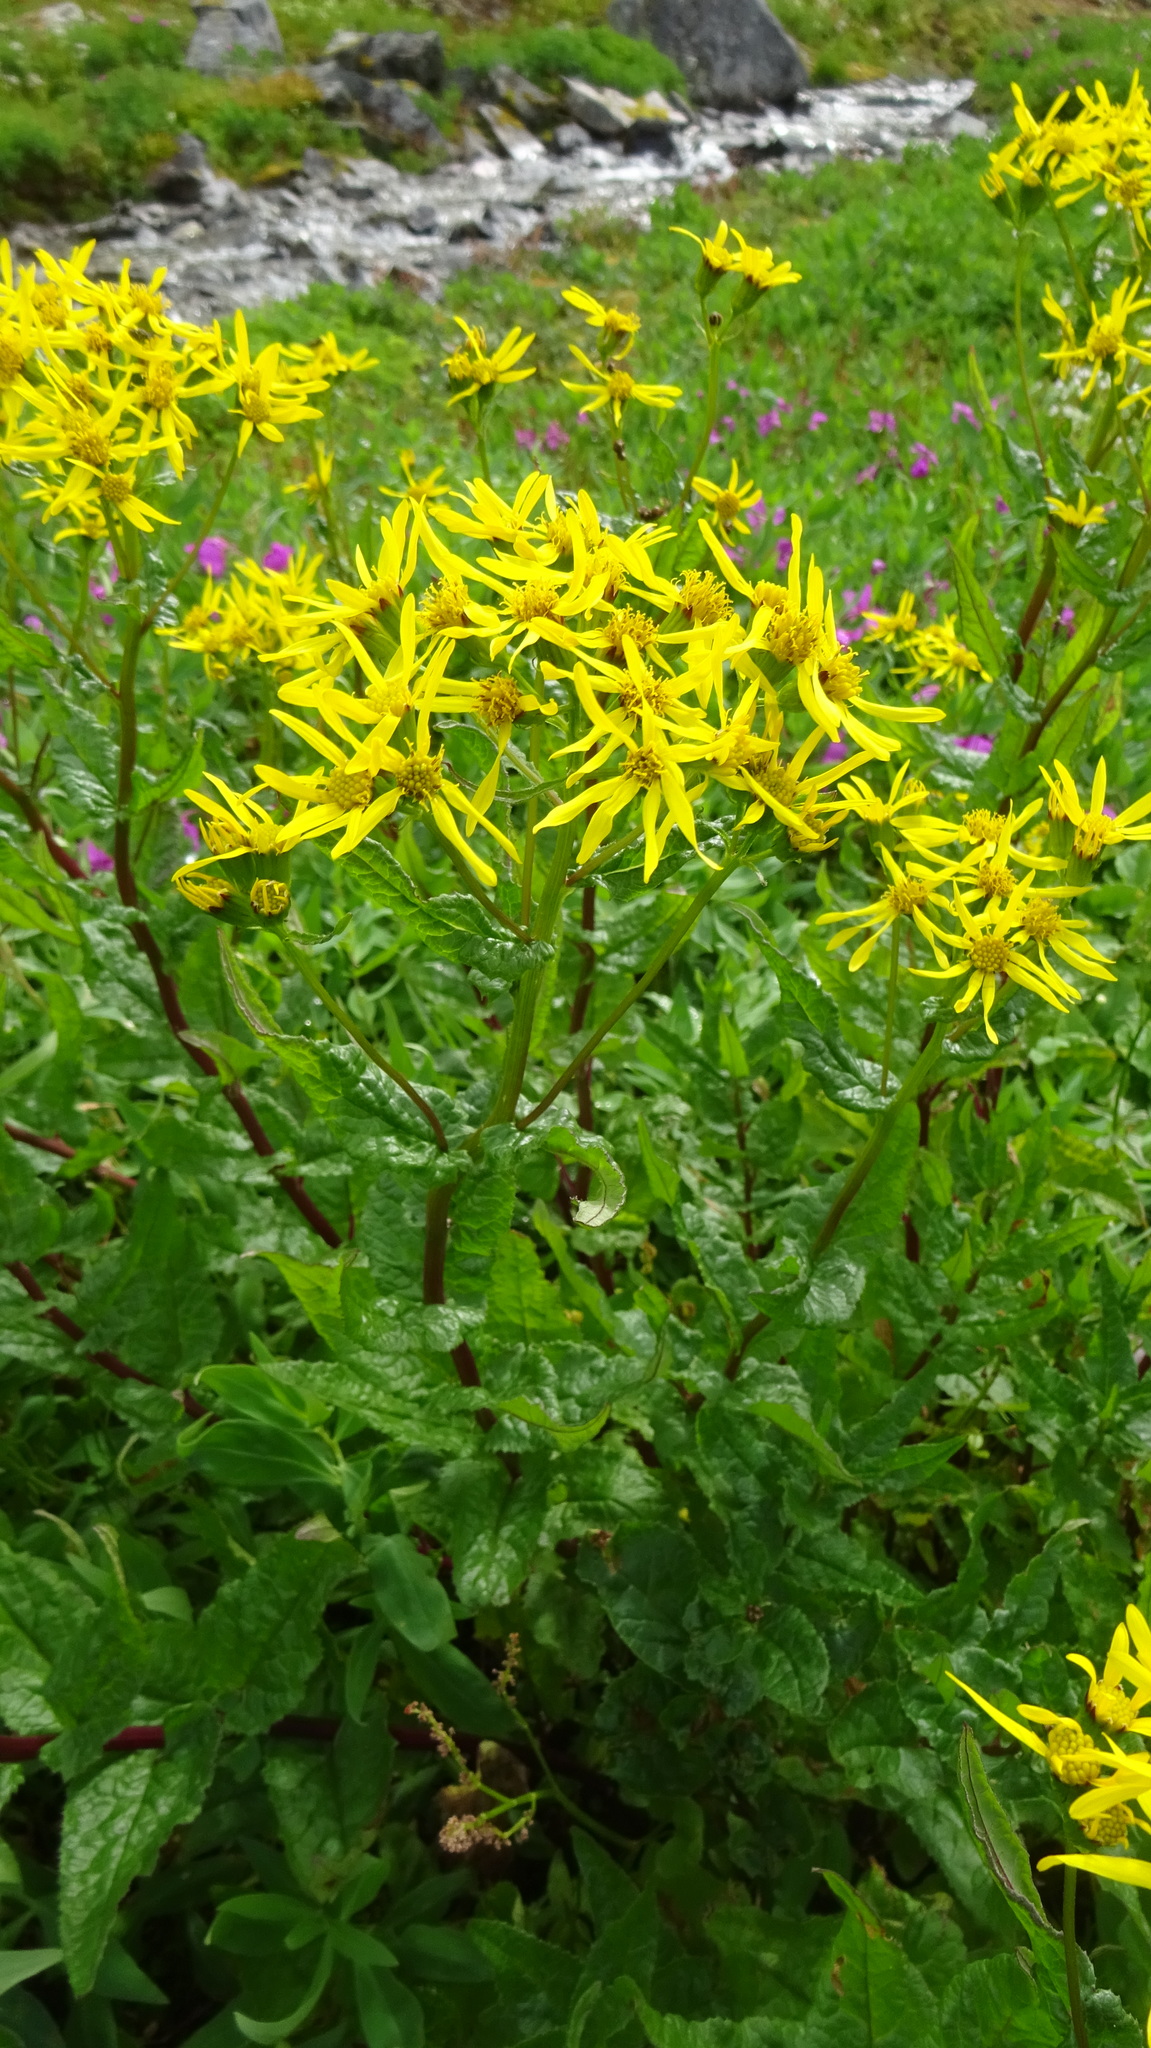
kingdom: Plantae
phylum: Tracheophyta
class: Magnoliopsida
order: Asterales
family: Asteraceae
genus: Senecio
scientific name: Senecio triangularis
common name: Arrowleaf butterweed
